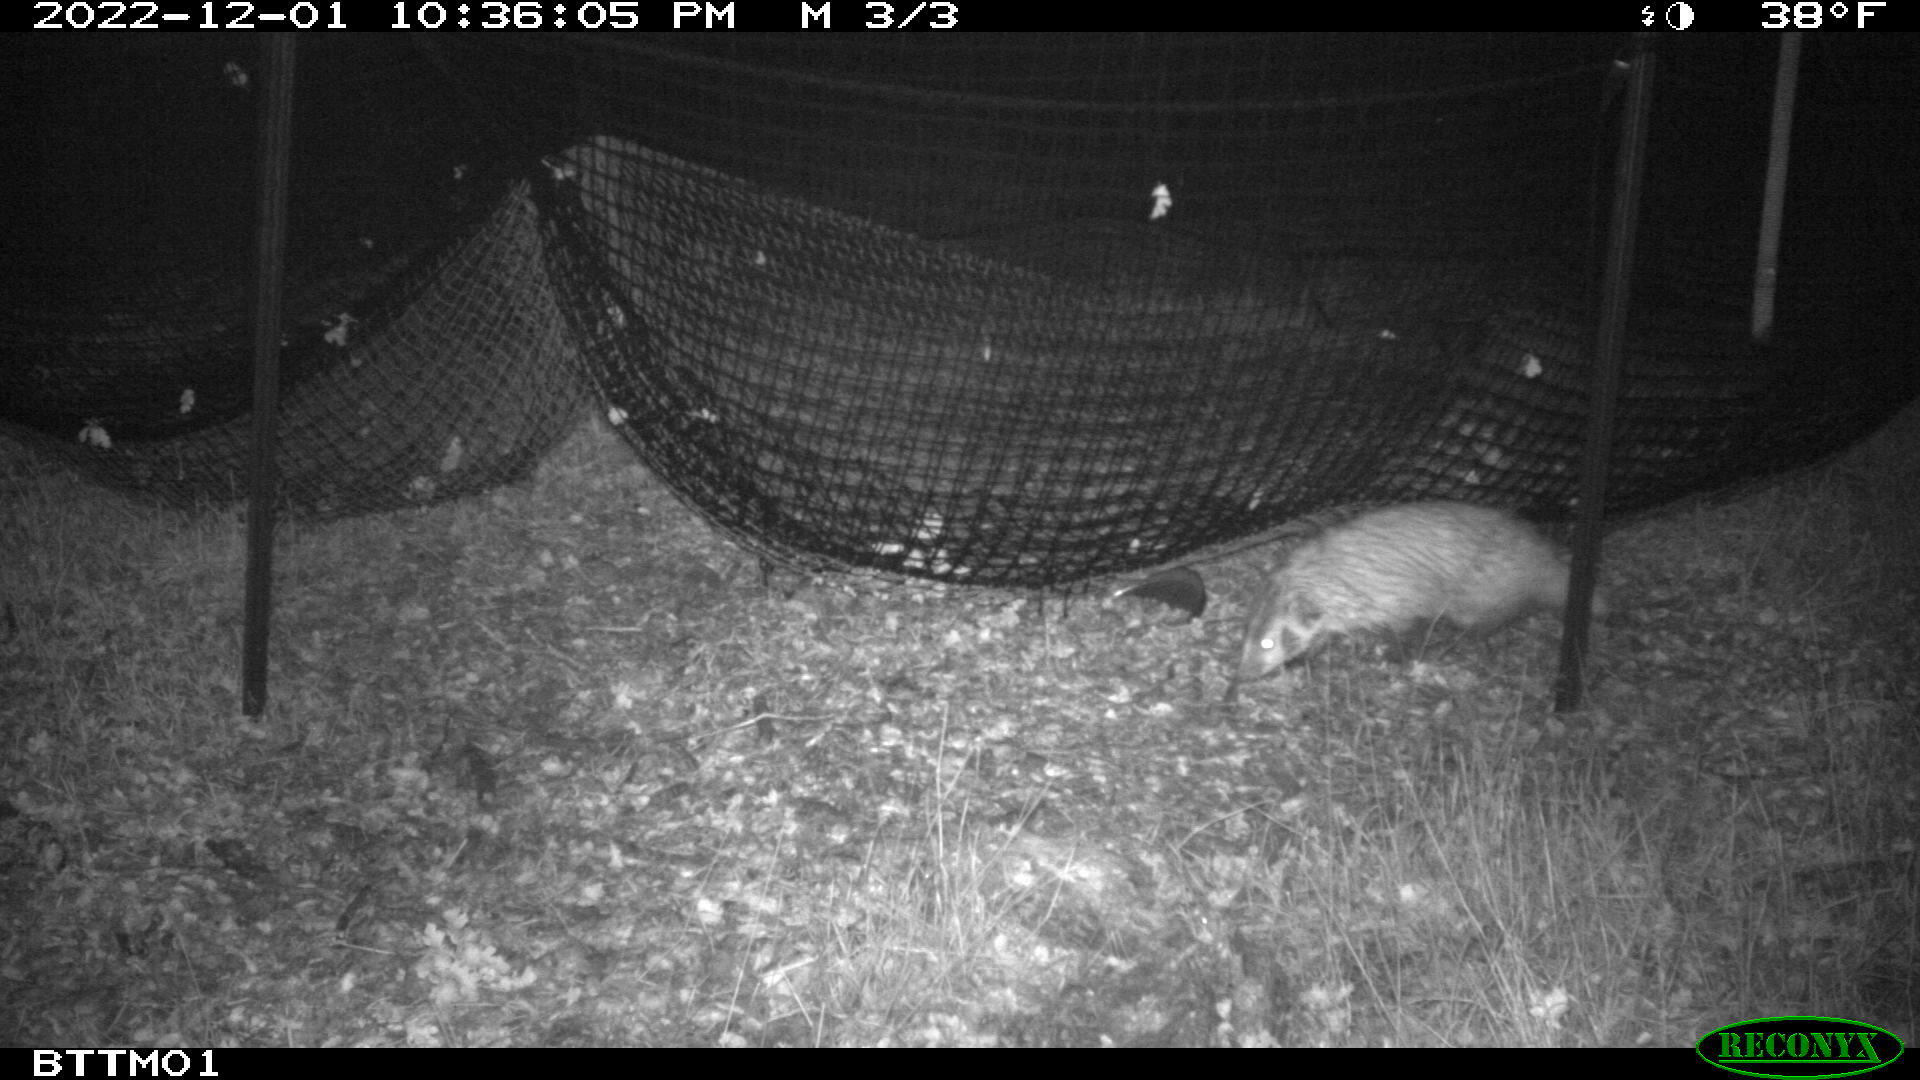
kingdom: Animalia
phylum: Chordata
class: Mammalia
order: Carnivora
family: Mustelidae
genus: Taxidea
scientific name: Taxidea taxus
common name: American badger
